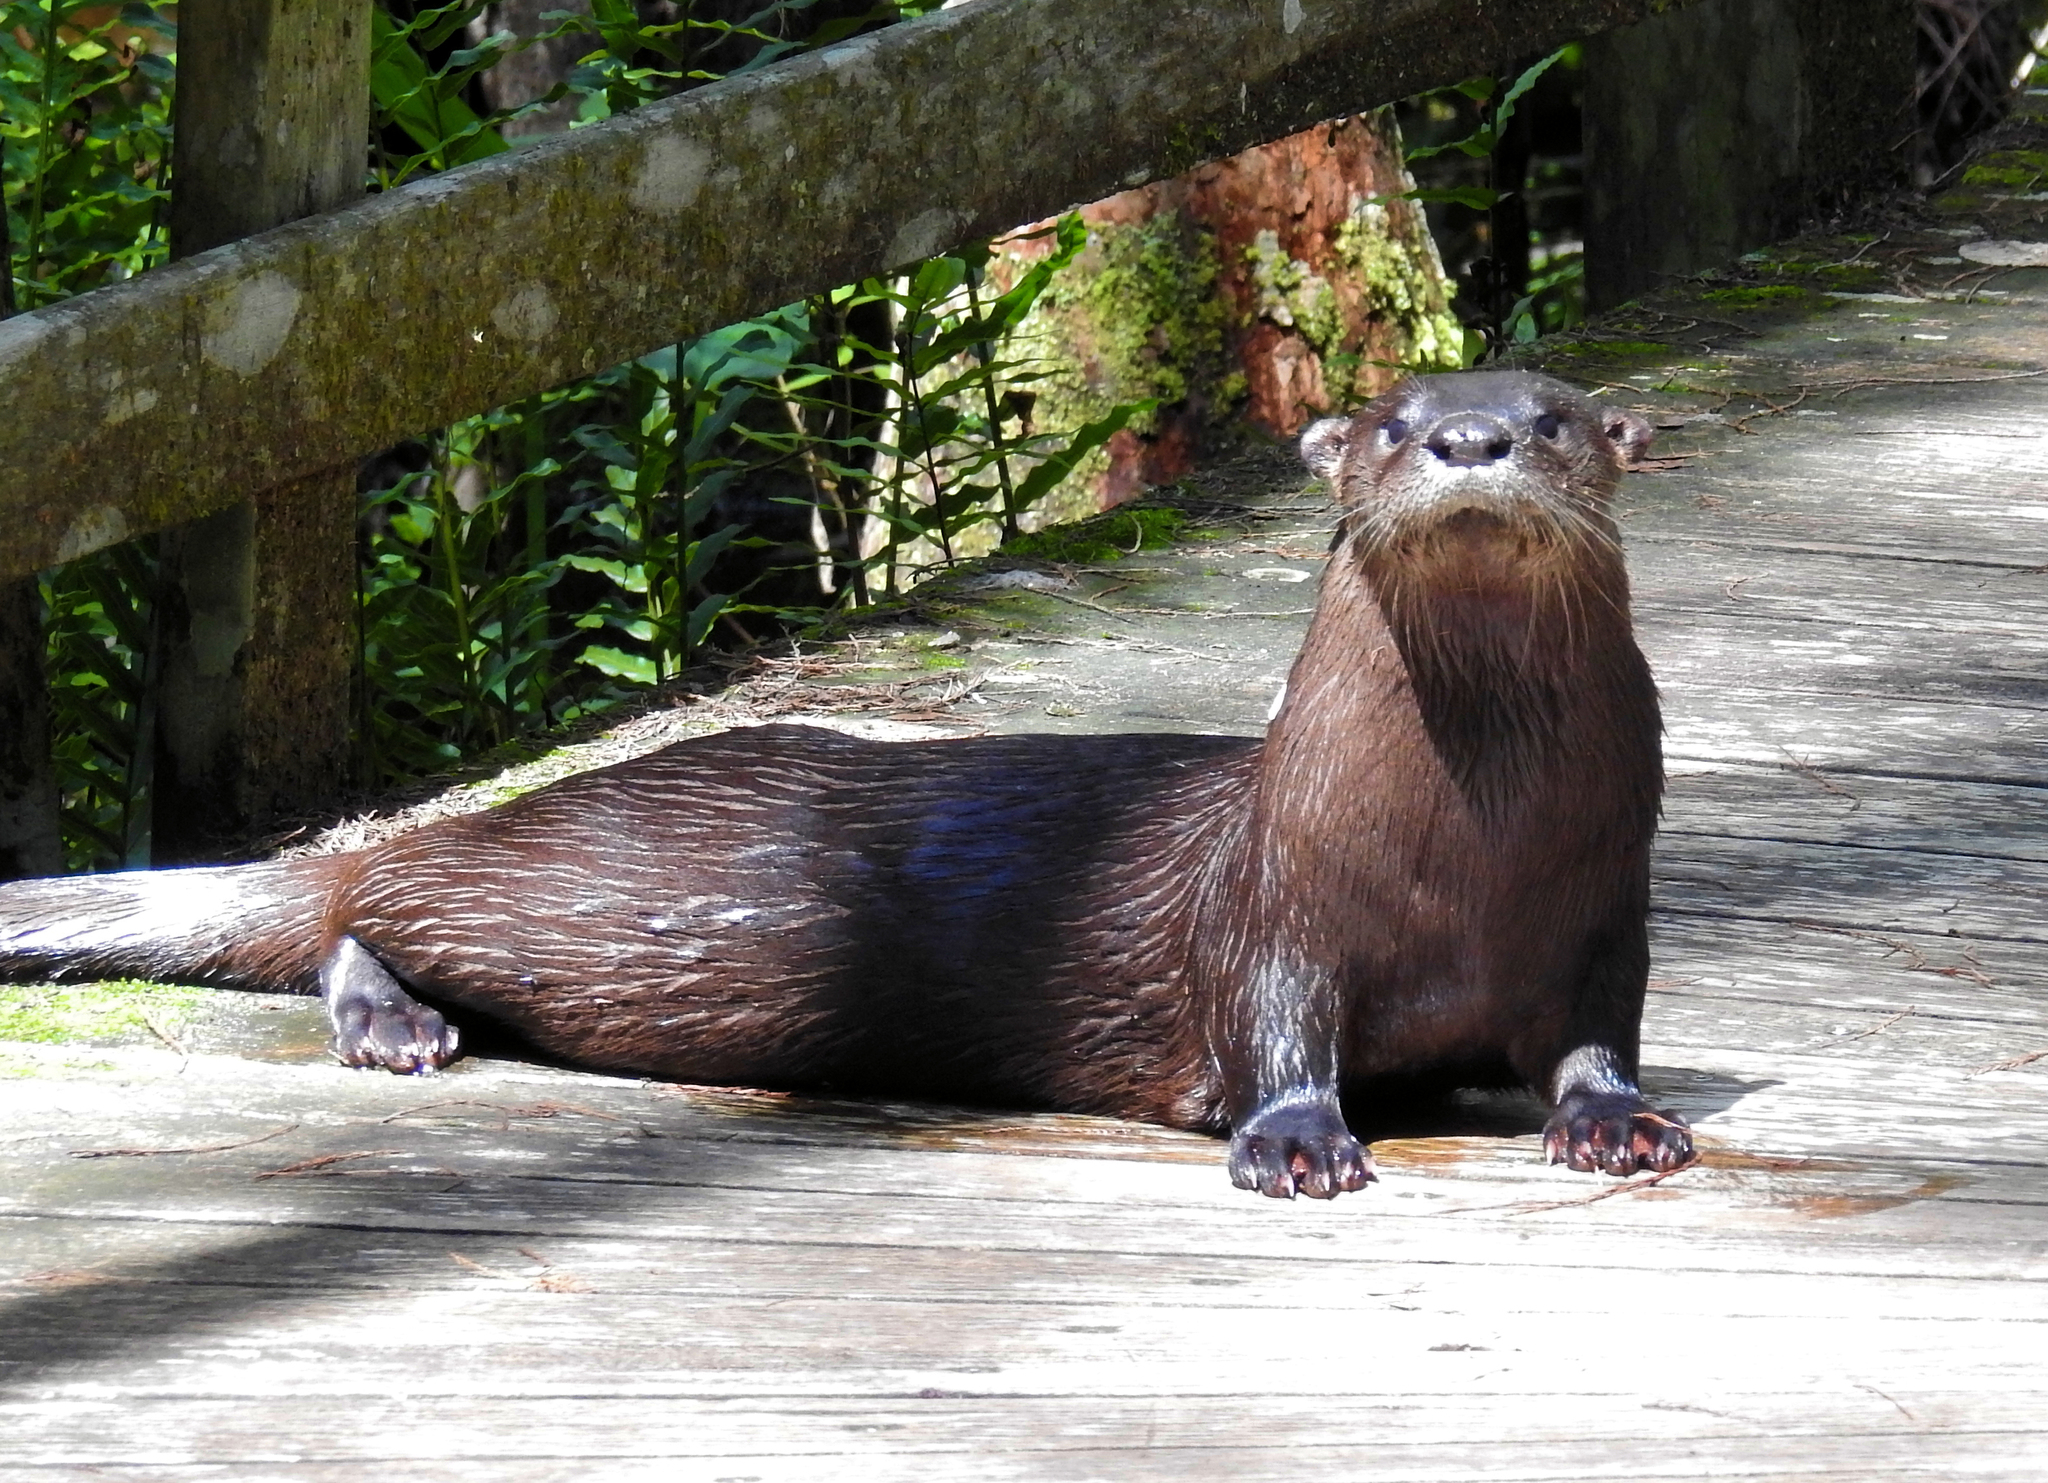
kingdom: Animalia
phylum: Chordata
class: Mammalia
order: Carnivora
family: Mustelidae
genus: Lontra
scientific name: Lontra canadensis
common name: North american river otter
